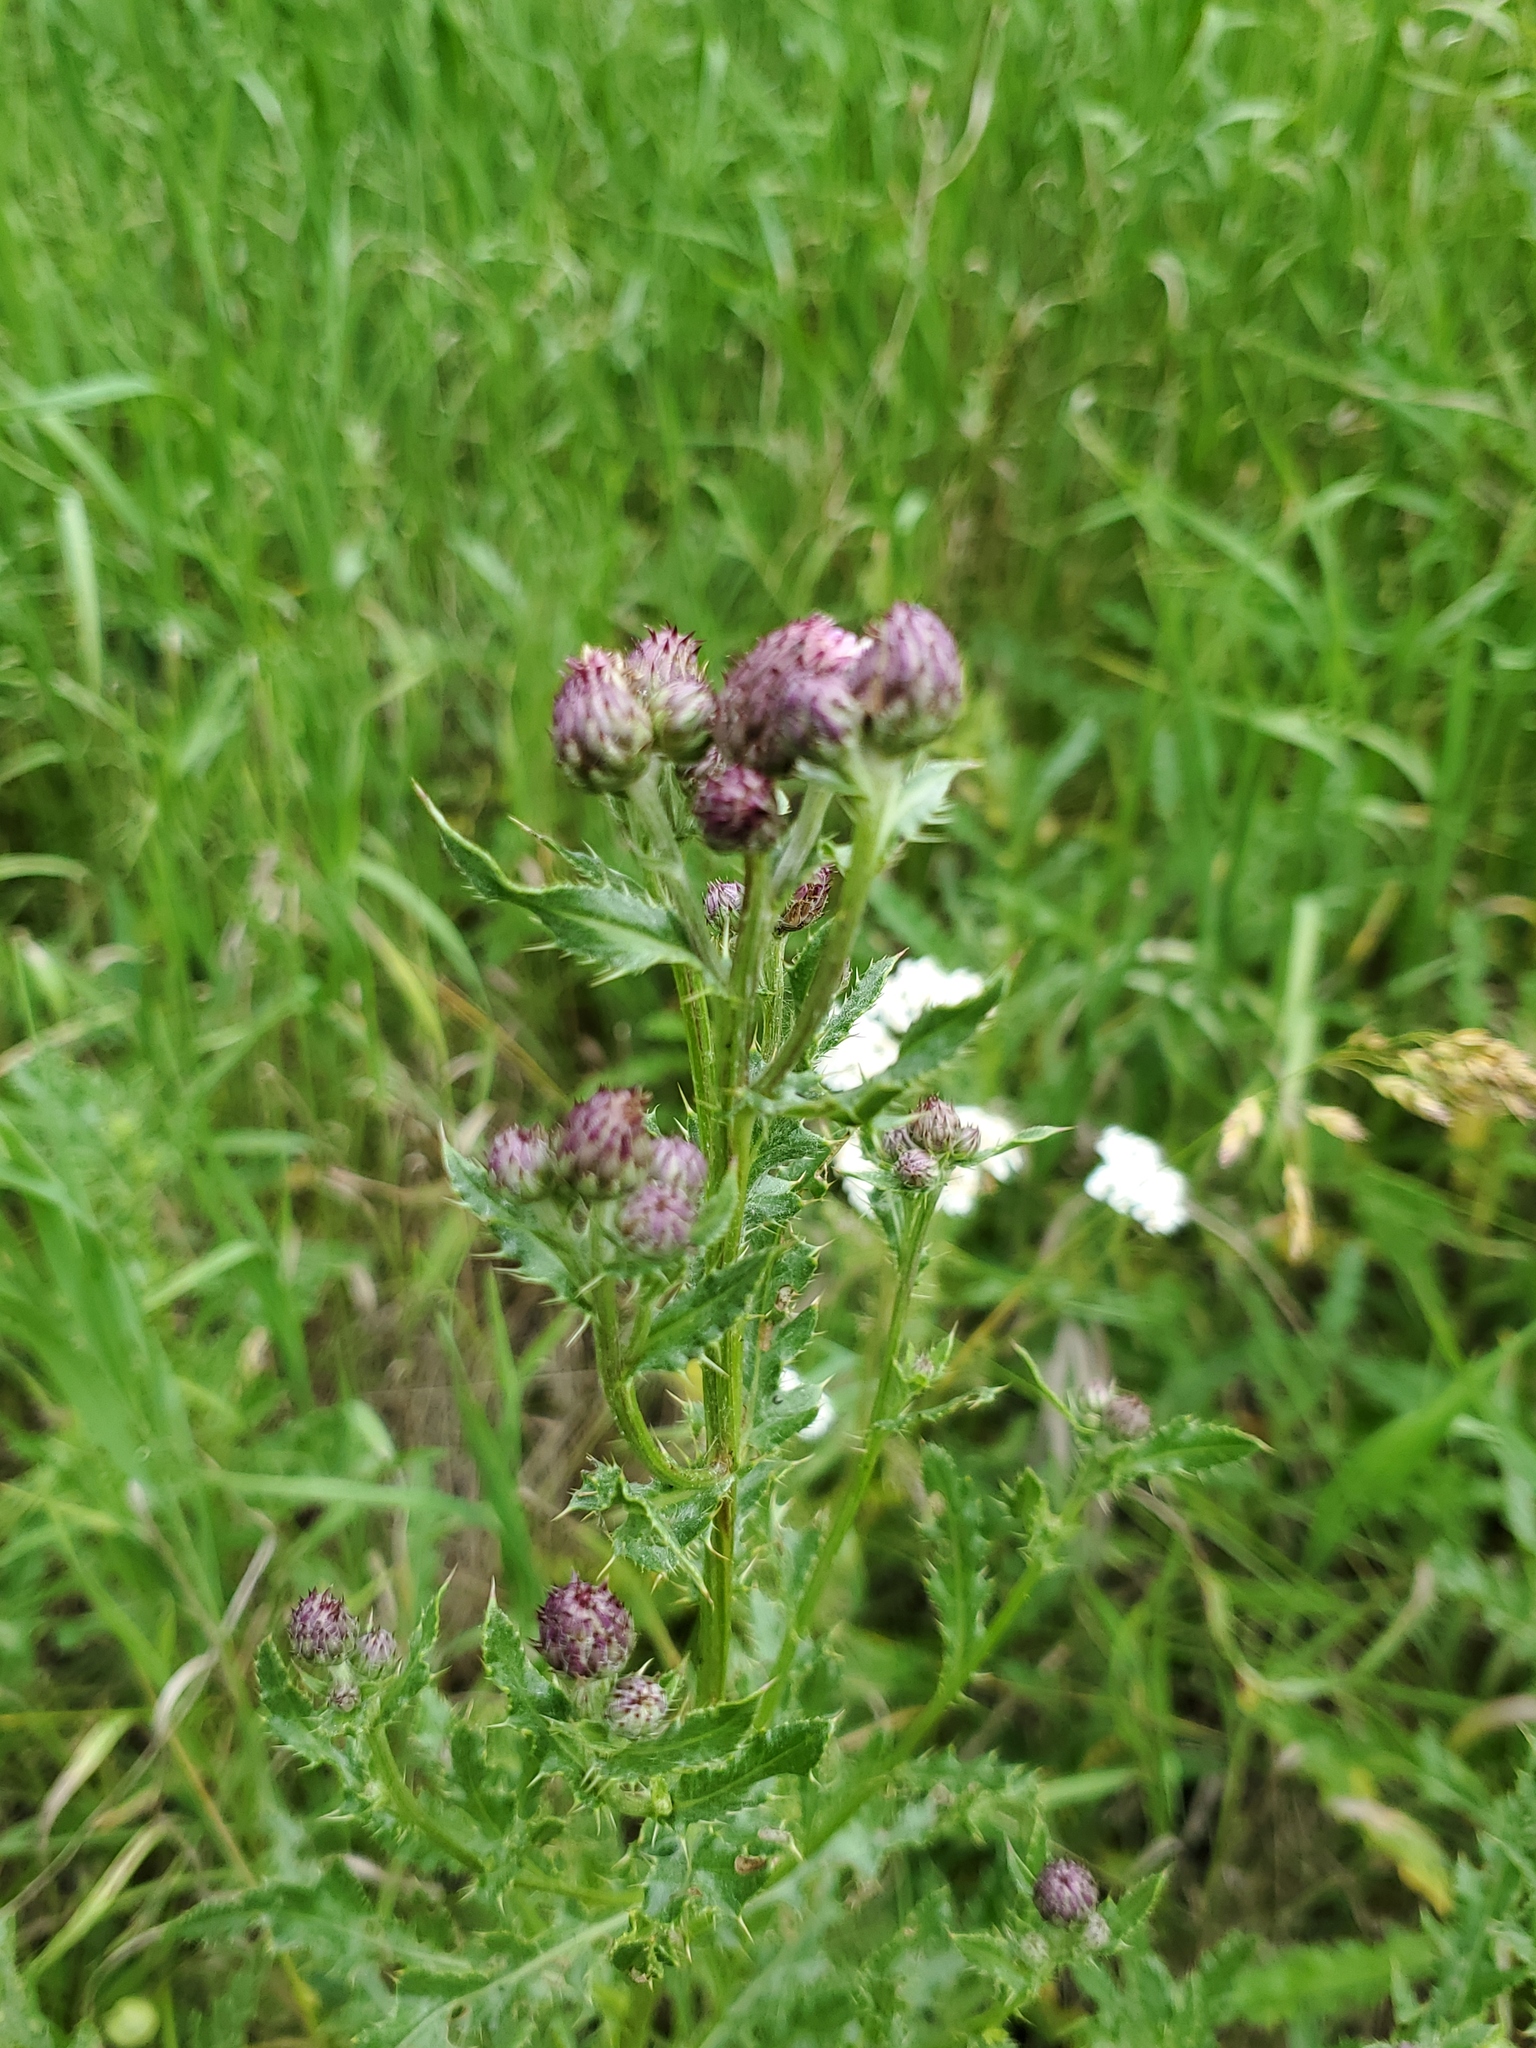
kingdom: Plantae
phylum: Tracheophyta
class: Magnoliopsida
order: Asterales
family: Asteraceae
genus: Cirsium
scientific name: Cirsium arvense
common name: Creeping thistle
